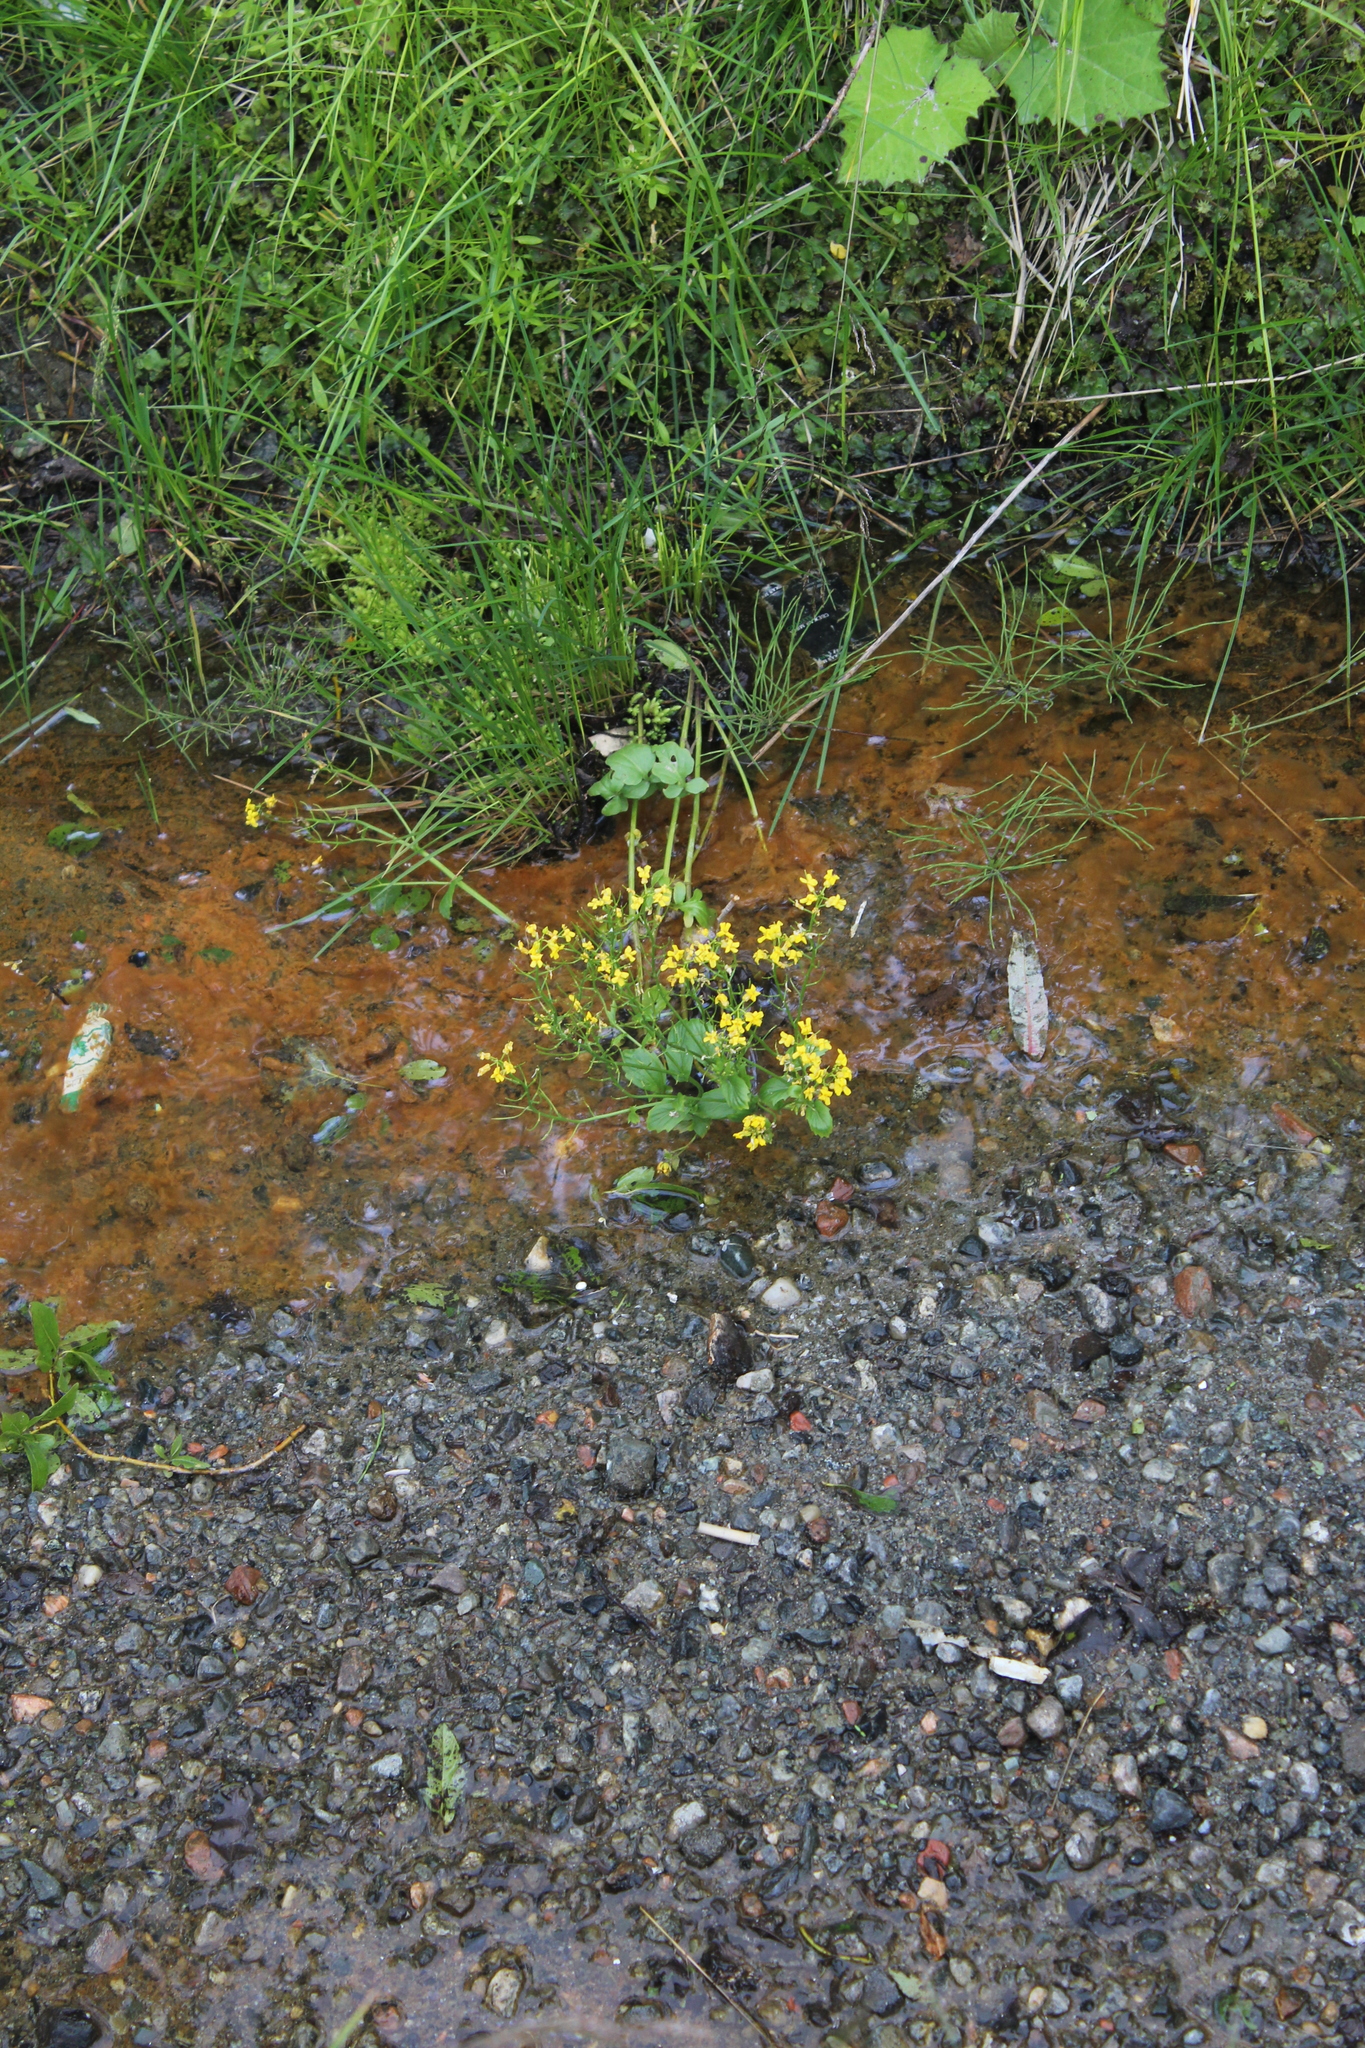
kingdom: Plantae
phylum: Tracheophyta
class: Magnoliopsida
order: Brassicales
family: Brassicaceae
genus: Barbarea
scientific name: Barbarea vulgaris
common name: Cressy-greens
